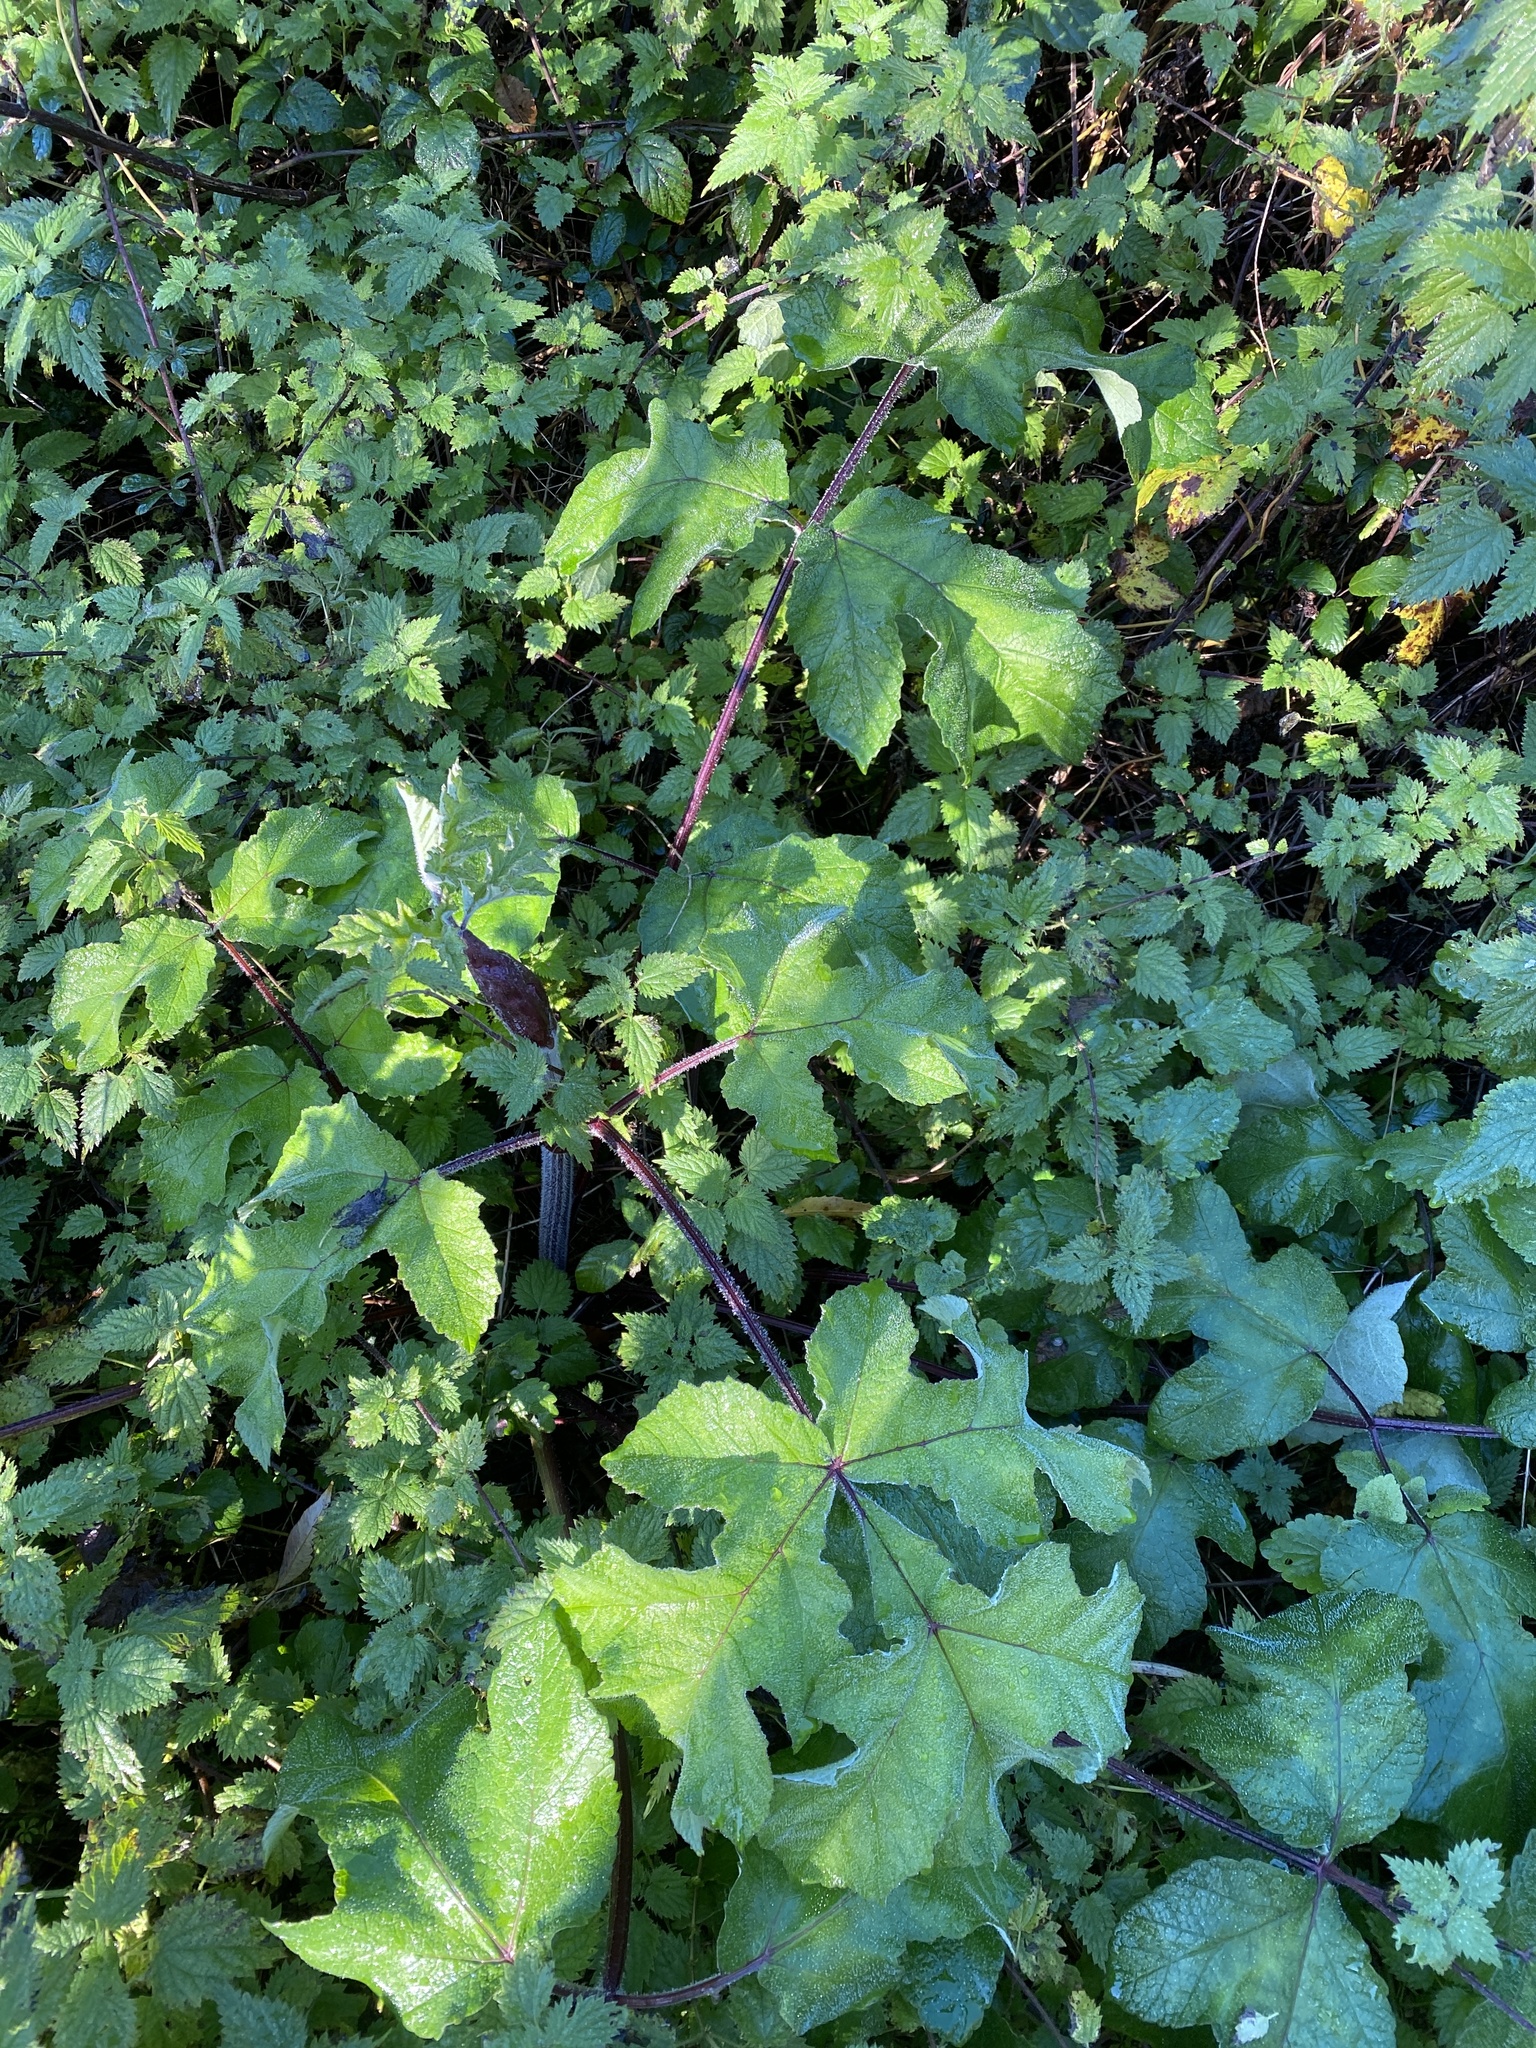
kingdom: Plantae
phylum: Tracheophyta
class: Magnoliopsida
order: Apiales
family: Apiaceae
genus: Heracleum
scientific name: Heracleum sphondylium
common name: Hogweed
